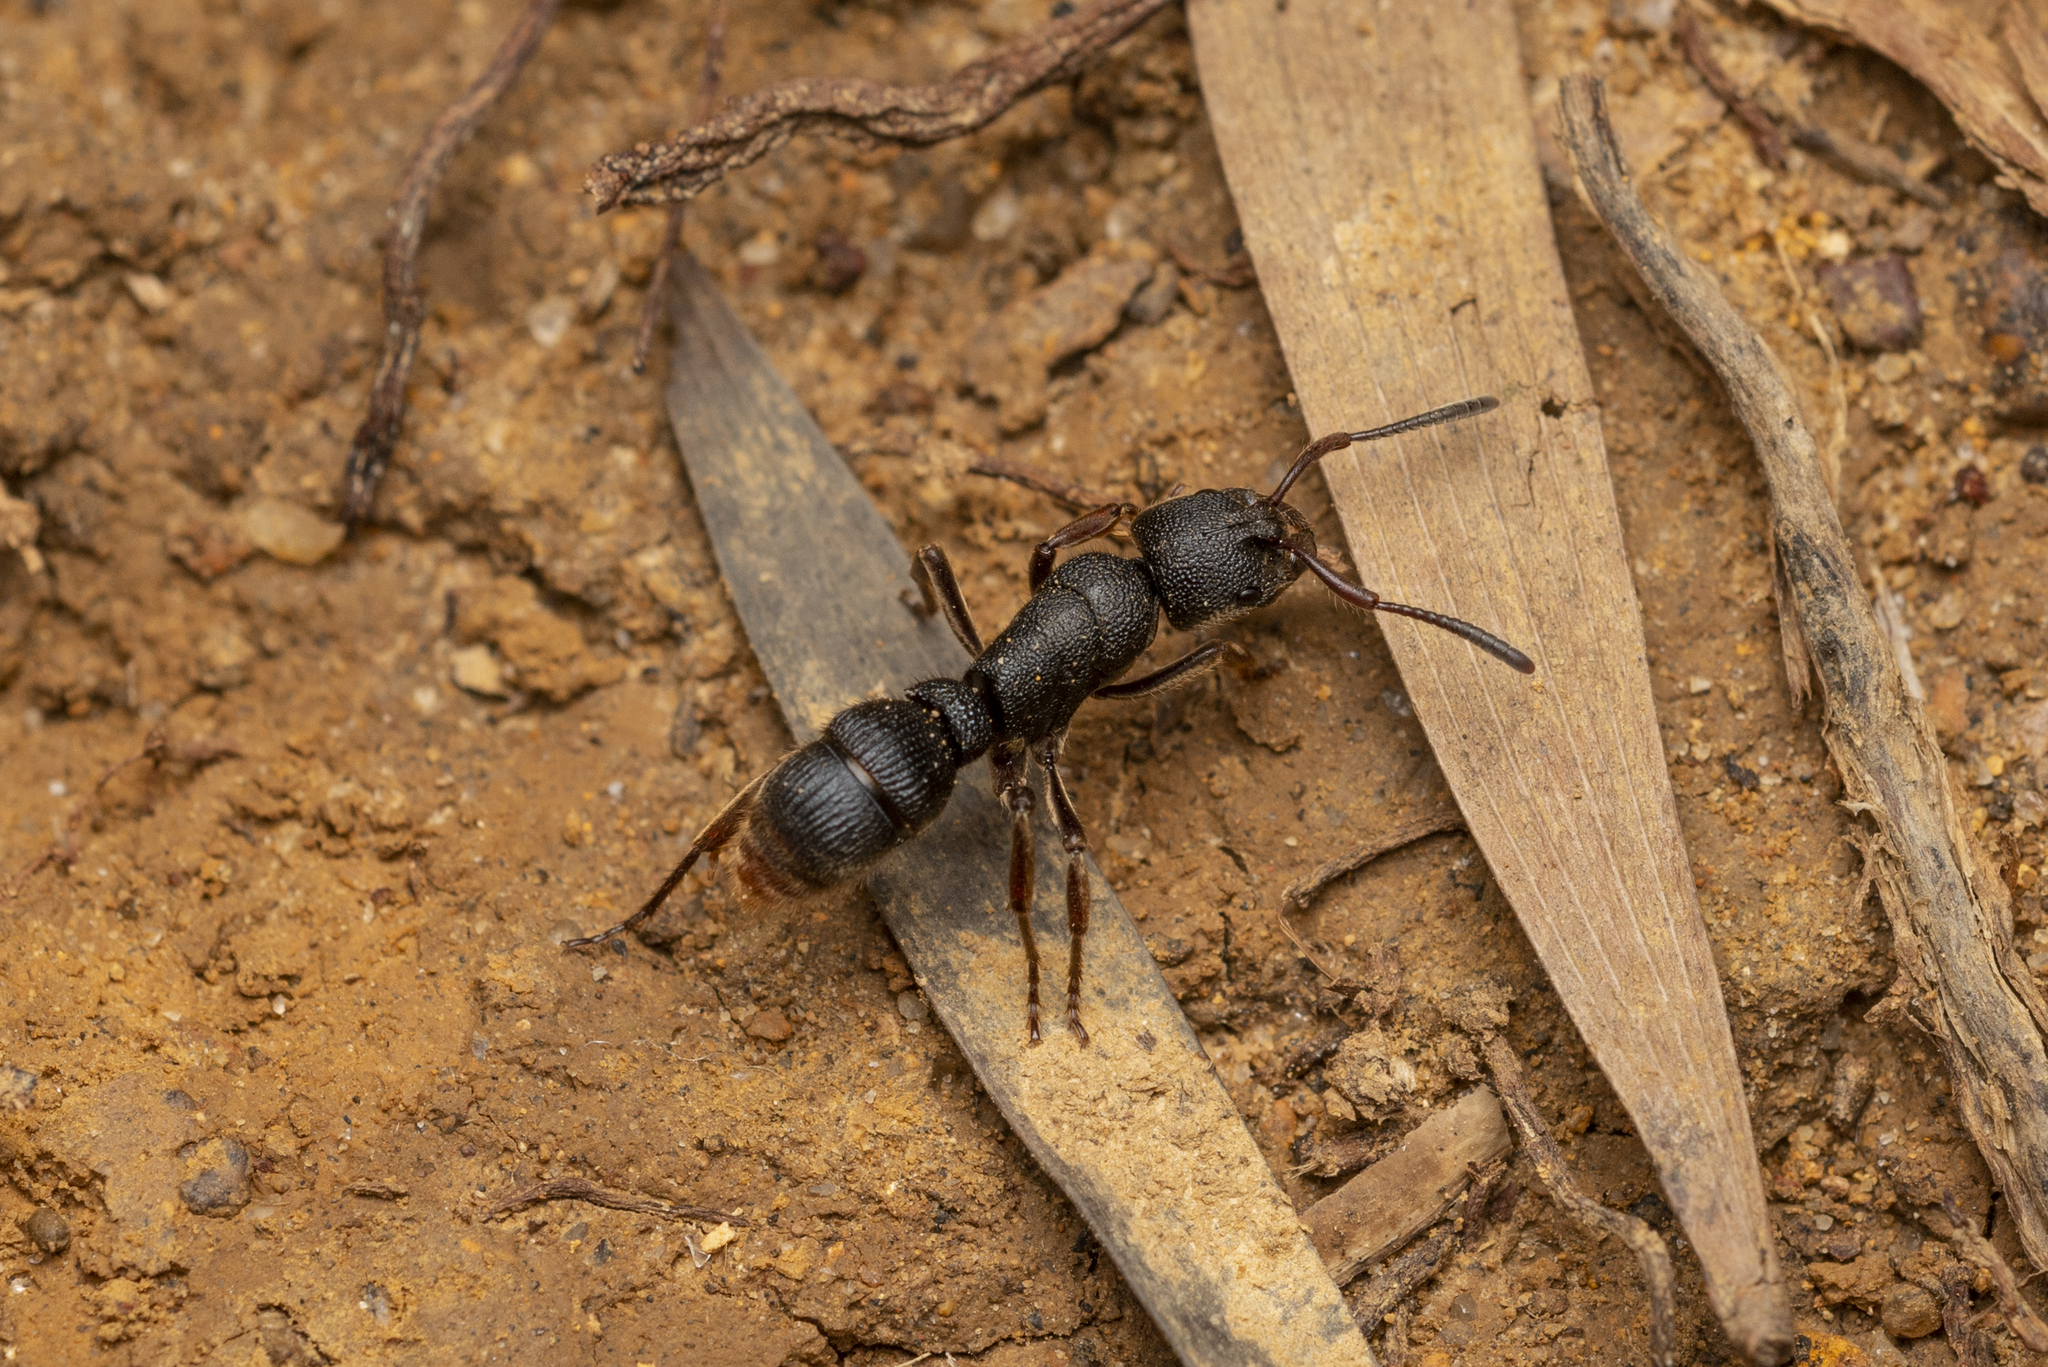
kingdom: Animalia
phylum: Arthropoda
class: Insecta
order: Hymenoptera
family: Formicidae
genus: Pseudoneoponera
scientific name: Pseudoneoponera rufipes
